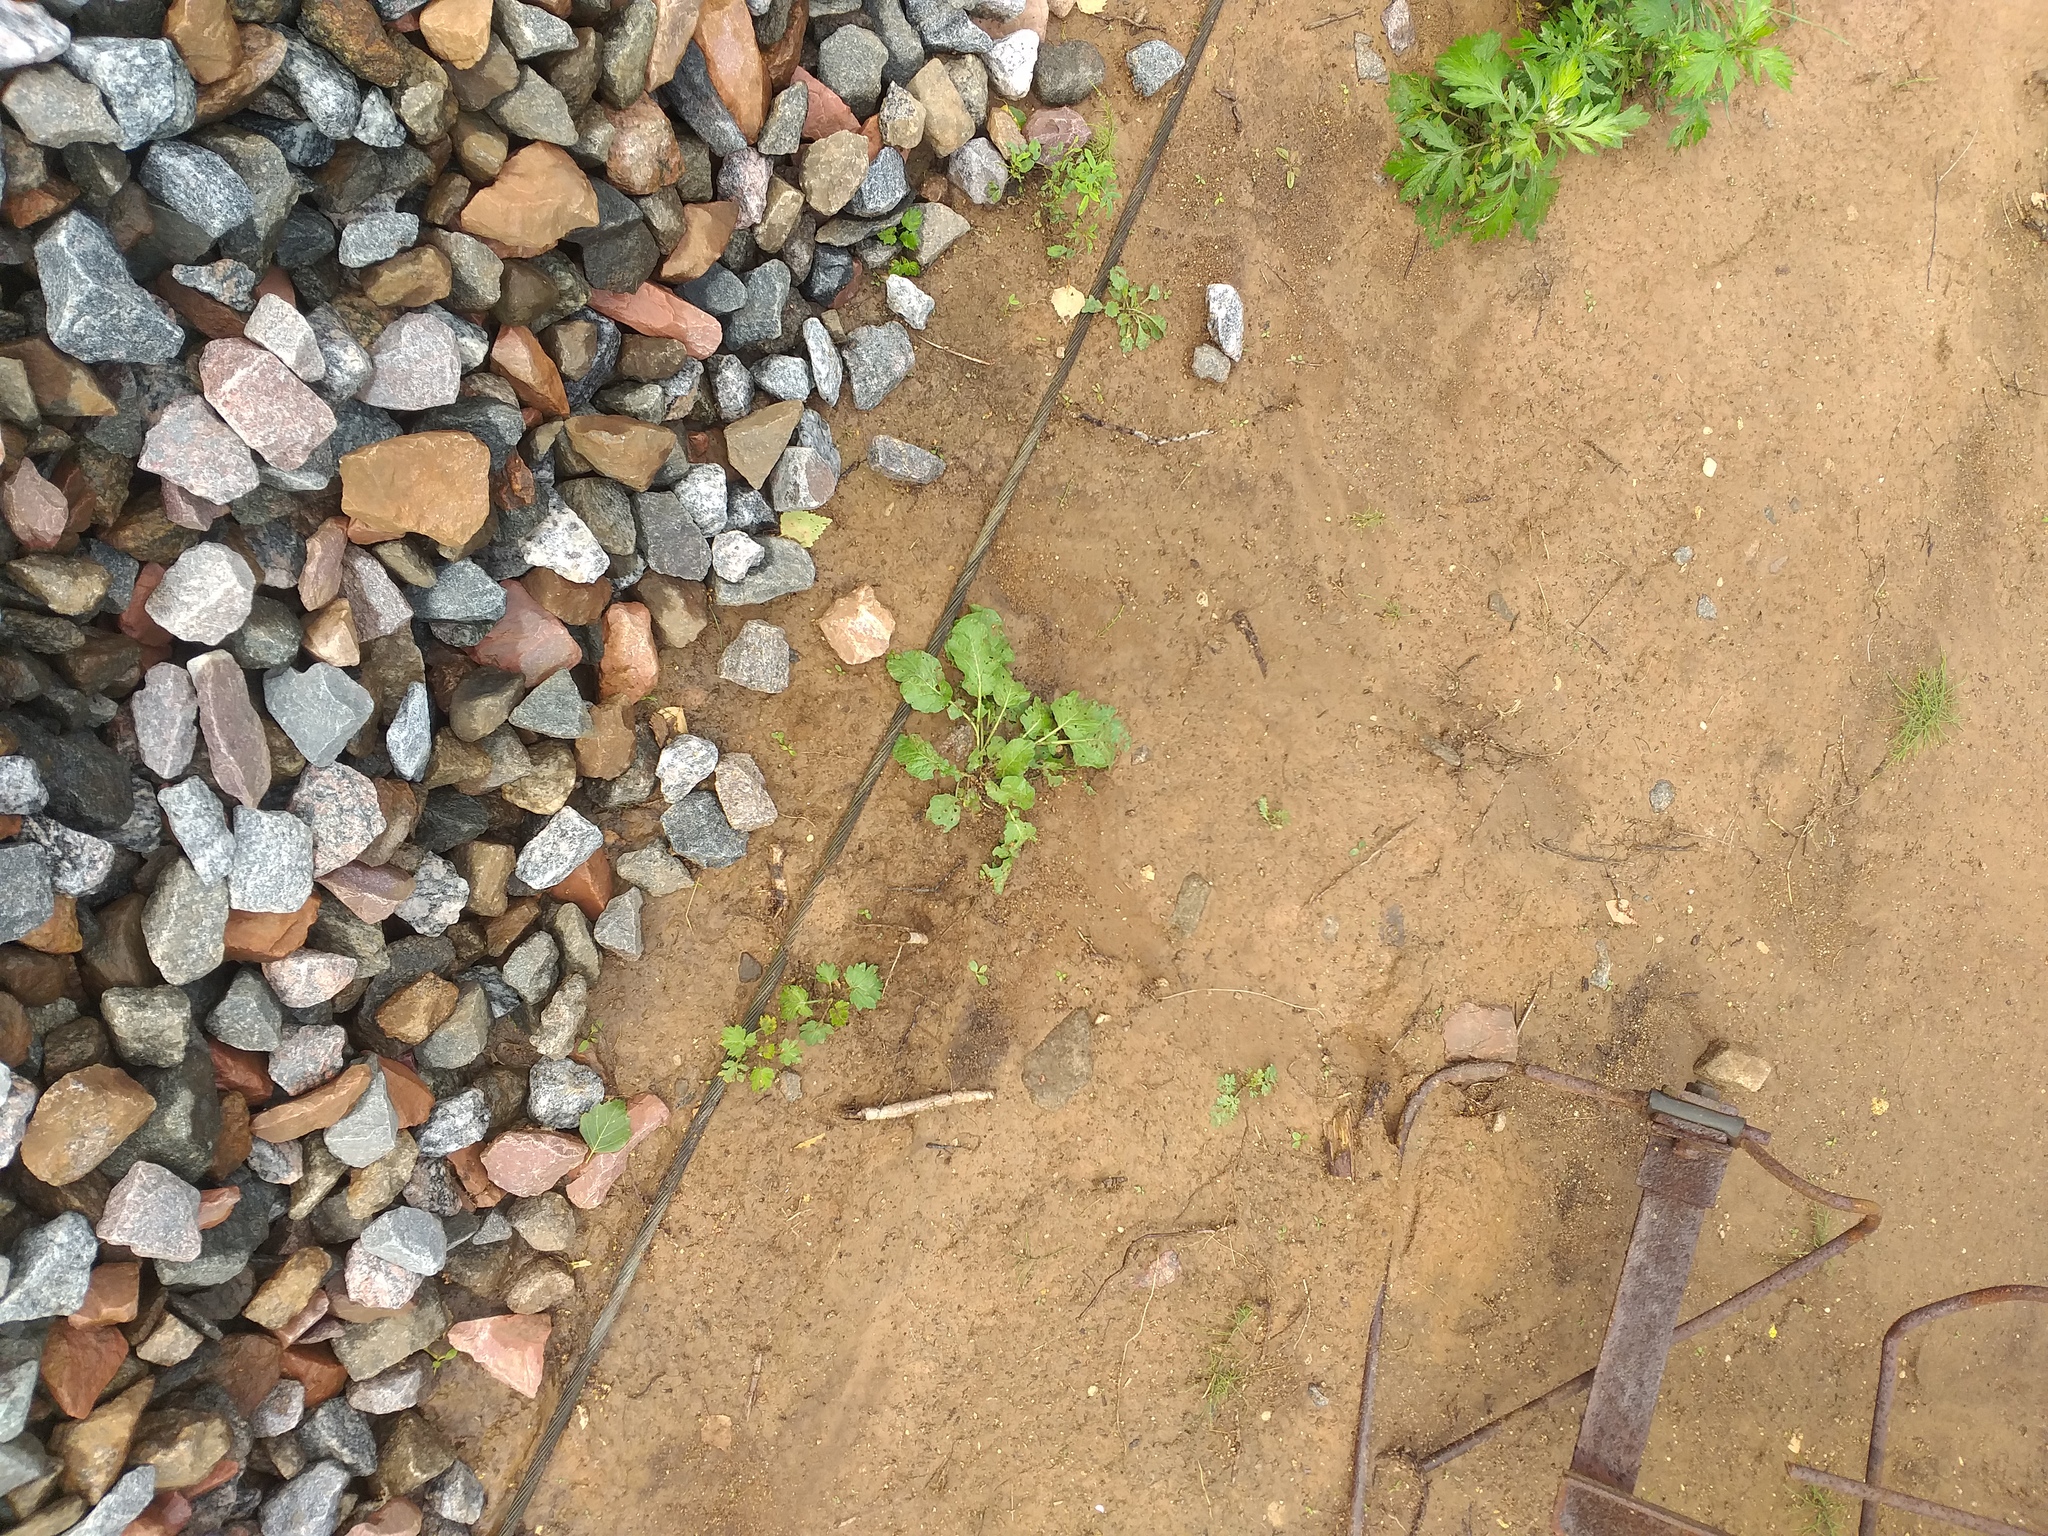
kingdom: Plantae
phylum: Tracheophyta
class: Magnoliopsida
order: Brassicales
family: Brassicaceae
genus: Barbarea
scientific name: Barbarea vulgaris
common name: Cressy-greens
